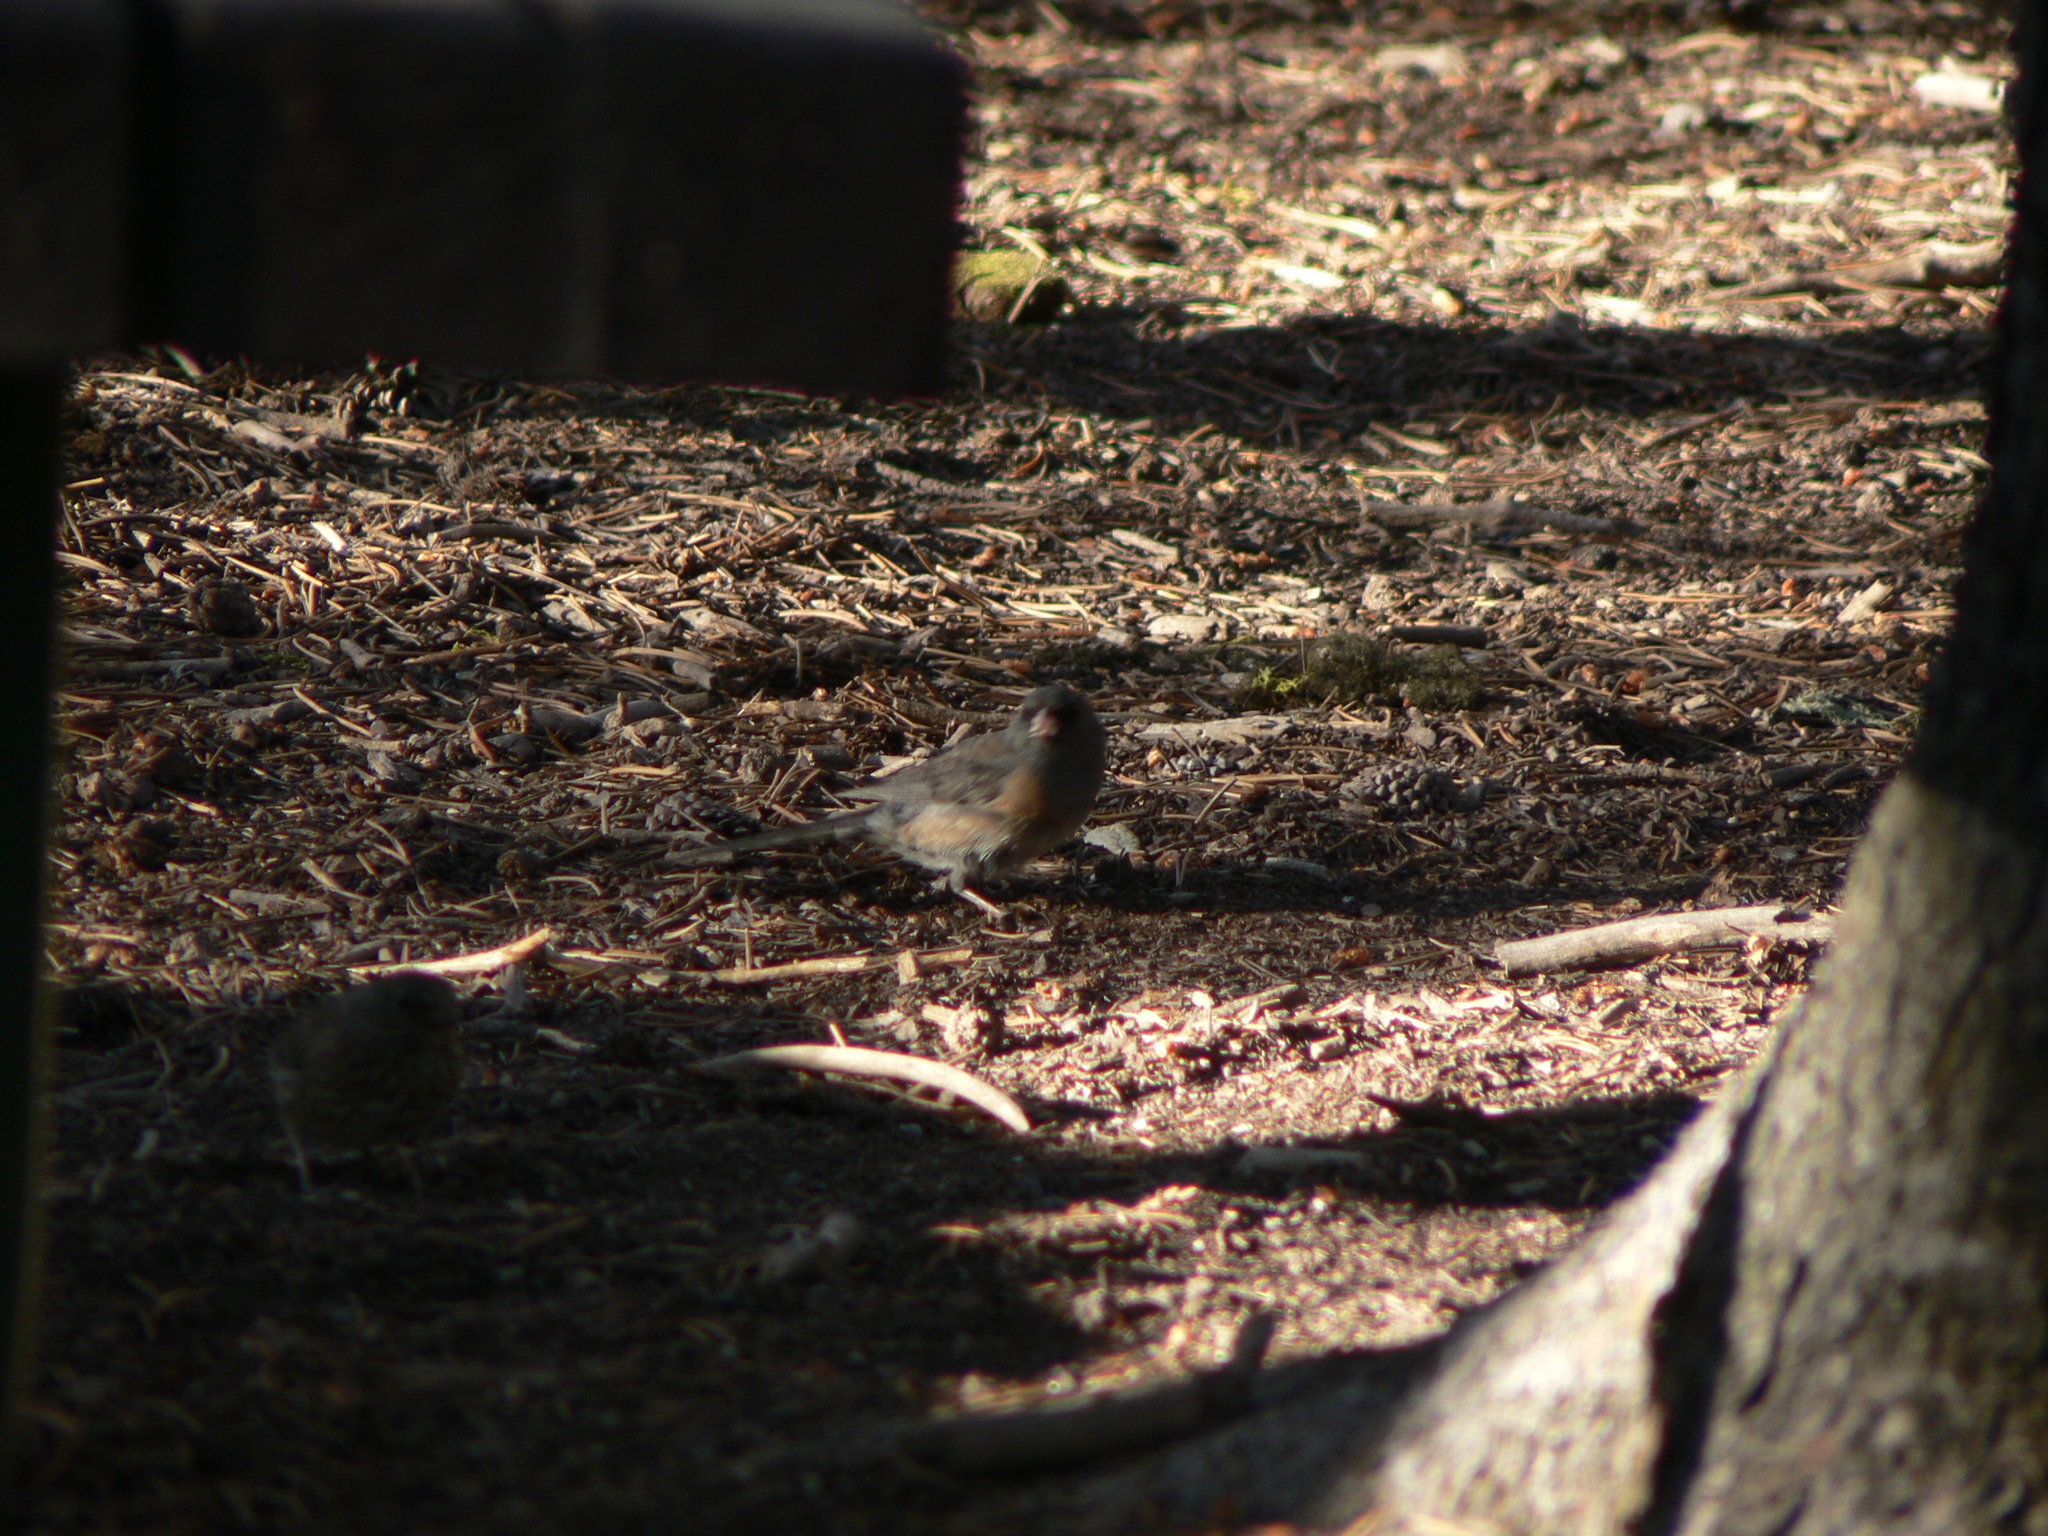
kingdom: Animalia
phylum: Chordata
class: Aves
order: Passeriformes
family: Passerellidae
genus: Junco
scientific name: Junco hyemalis
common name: Dark-eyed junco
